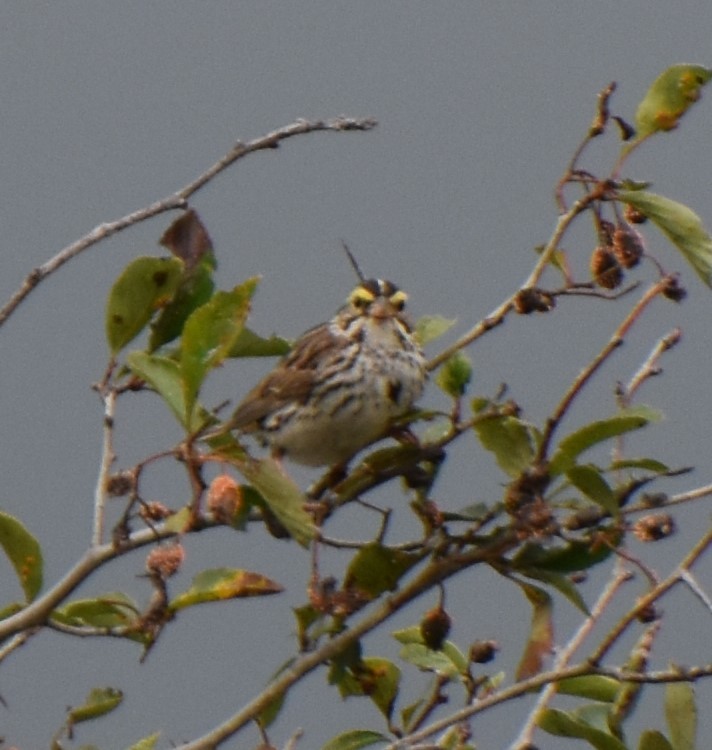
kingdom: Animalia
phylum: Chordata
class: Aves
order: Passeriformes
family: Passerellidae
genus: Passerculus
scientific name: Passerculus sandwichensis
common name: Savannah sparrow
